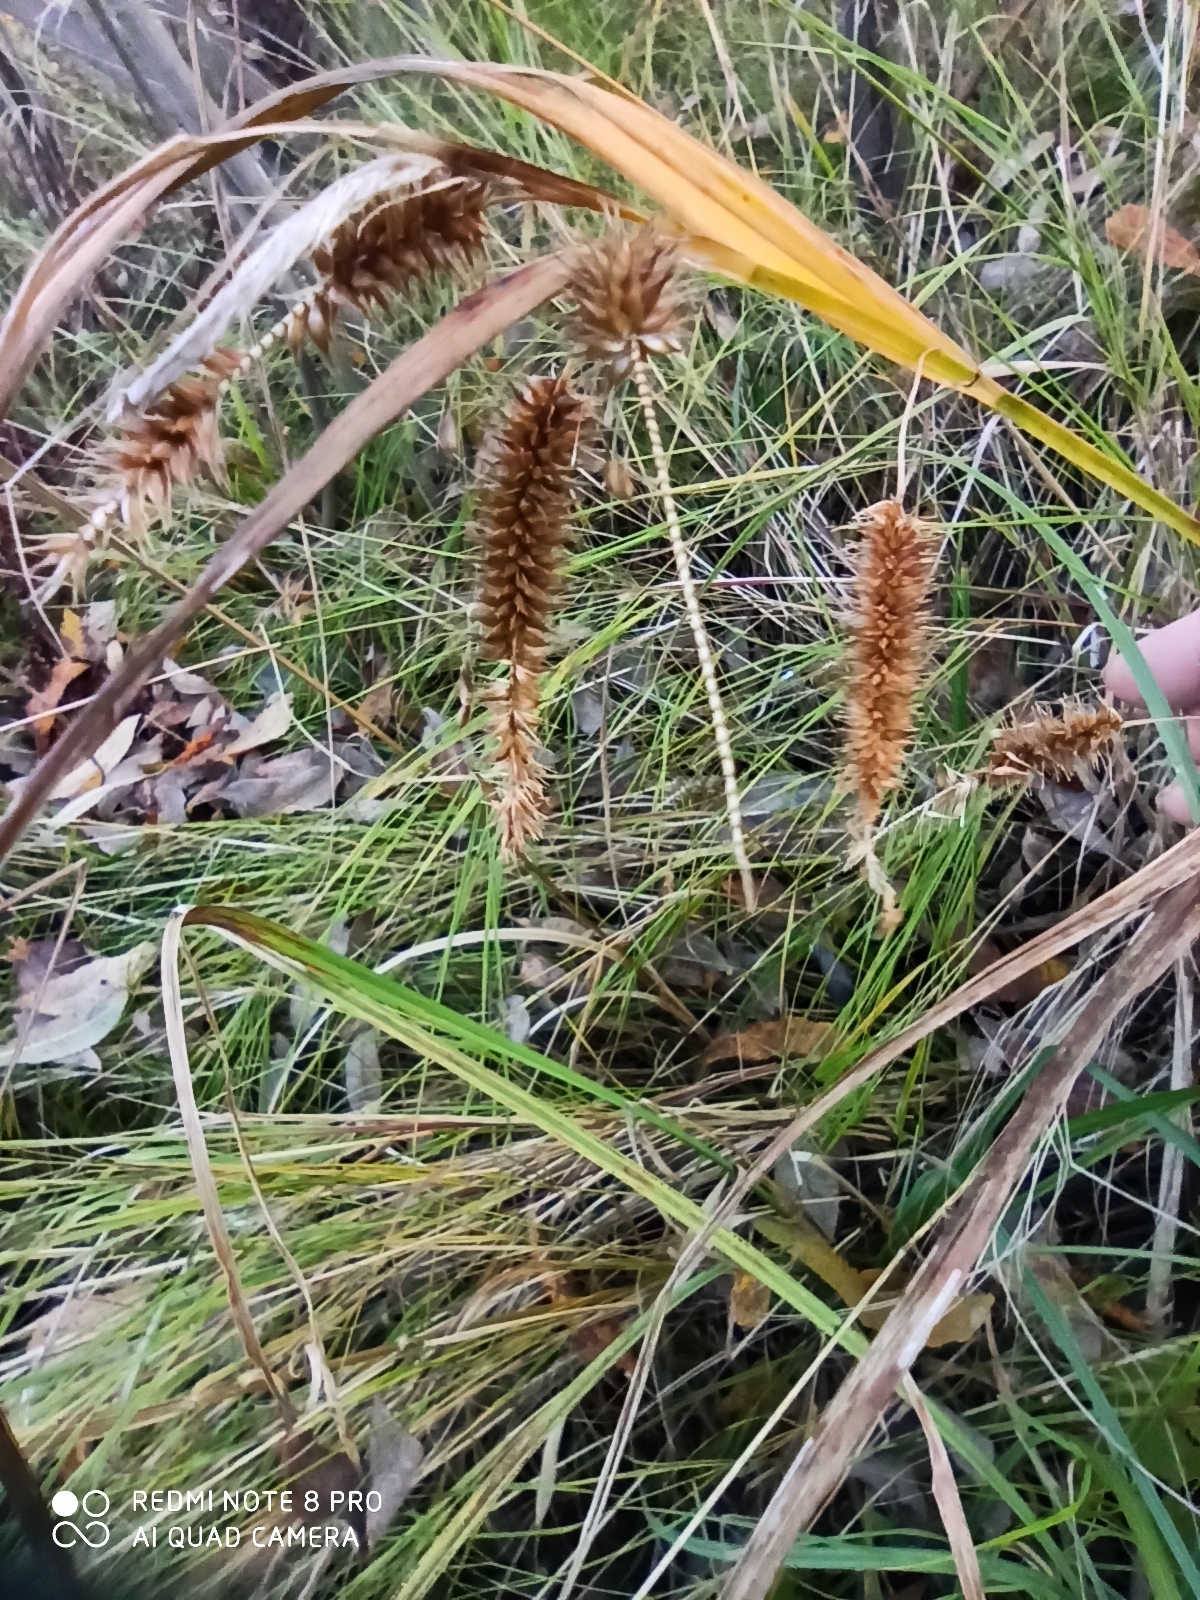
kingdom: Plantae
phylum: Tracheophyta
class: Liliopsida
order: Poales
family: Cyperaceae
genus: Carex
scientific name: Carex pseudocyperus
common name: Cyperus sedge
